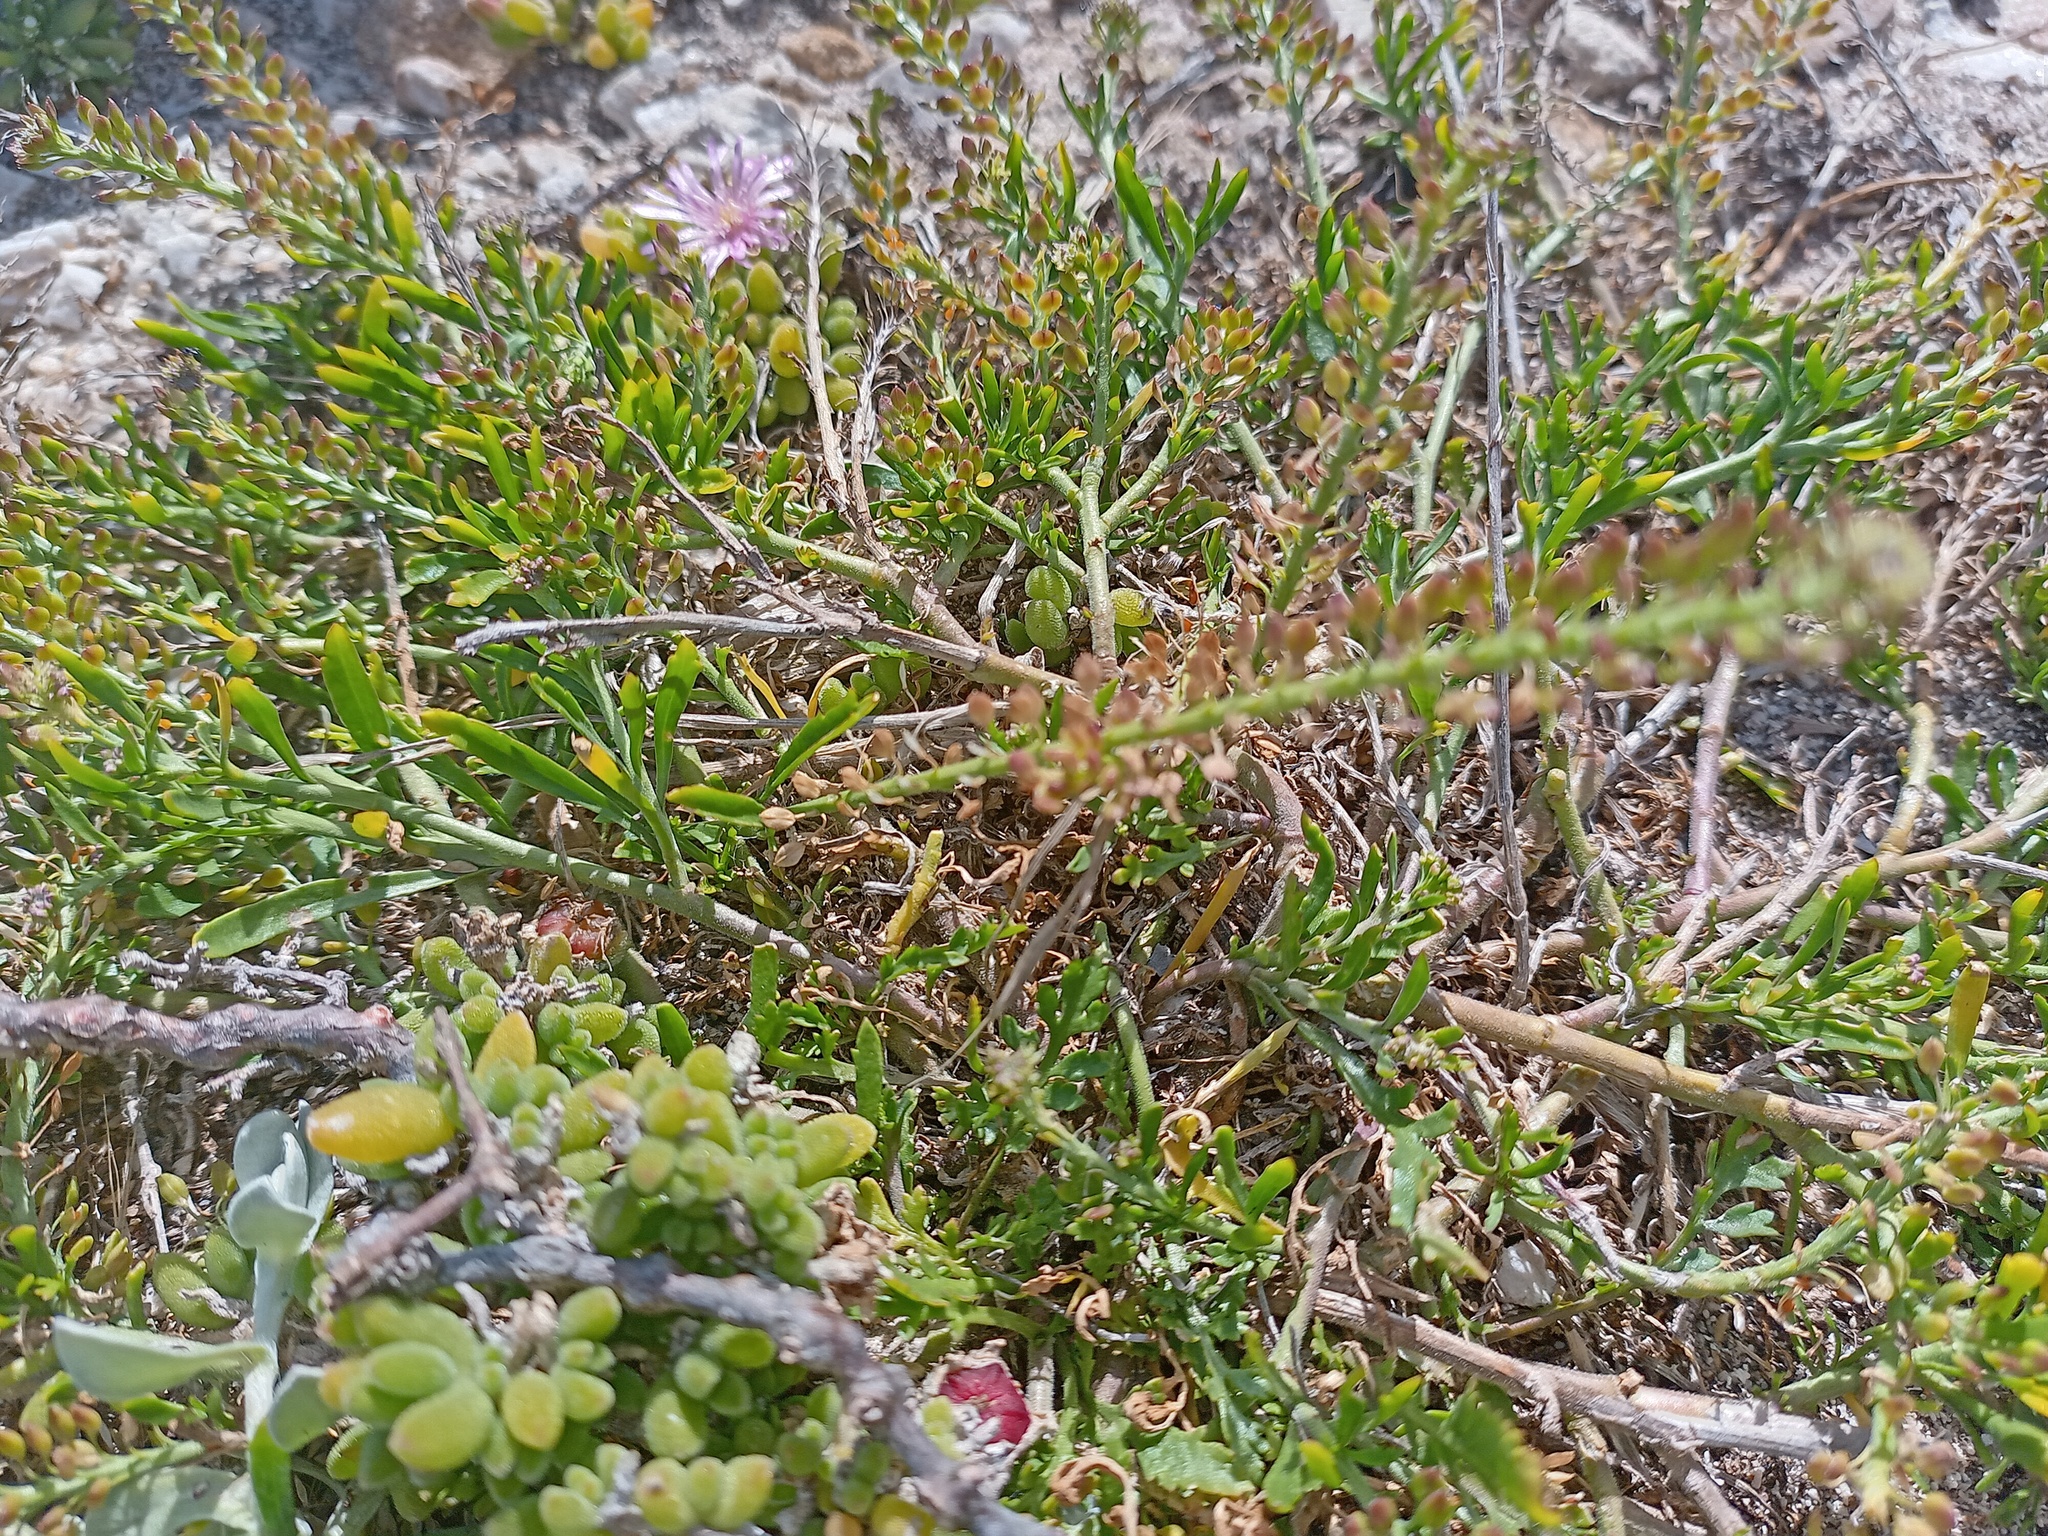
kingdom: Plantae
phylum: Tracheophyta
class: Magnoliopsida
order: Brassicales
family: Brassicaceae
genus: Lepidium
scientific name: Lepidium capense
